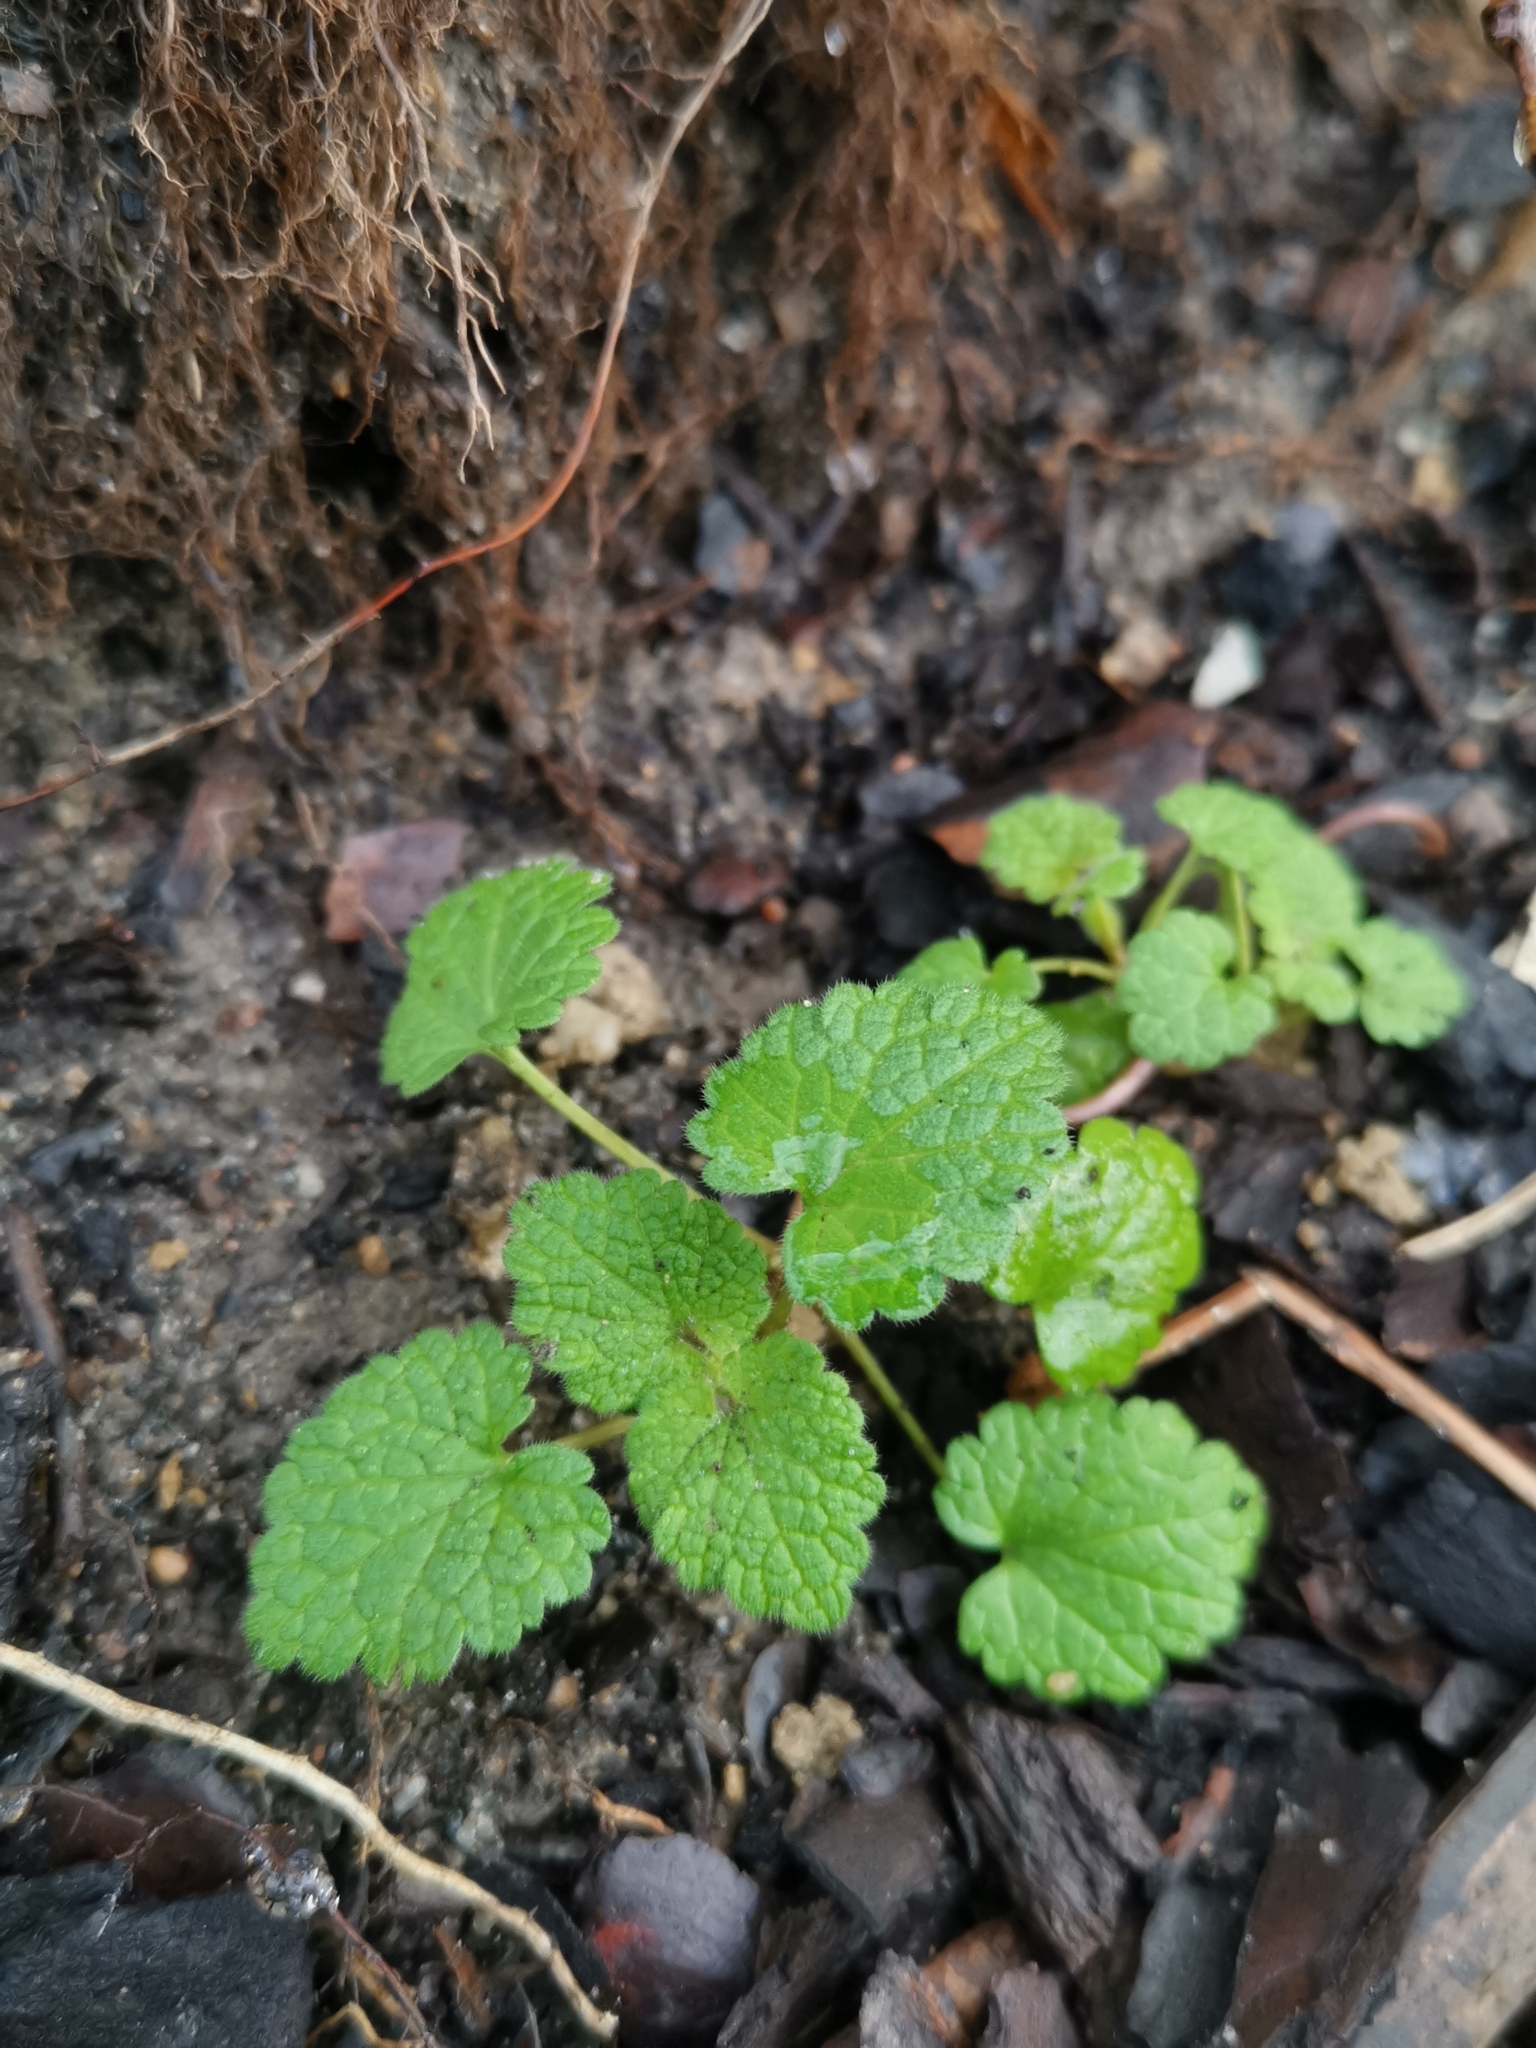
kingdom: Plantae
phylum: Tracheophyta
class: Magnoliopsida
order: Lamiales
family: Lamiaceae
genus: Lamium
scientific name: Lamium purpureum
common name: Red dead-nettle
